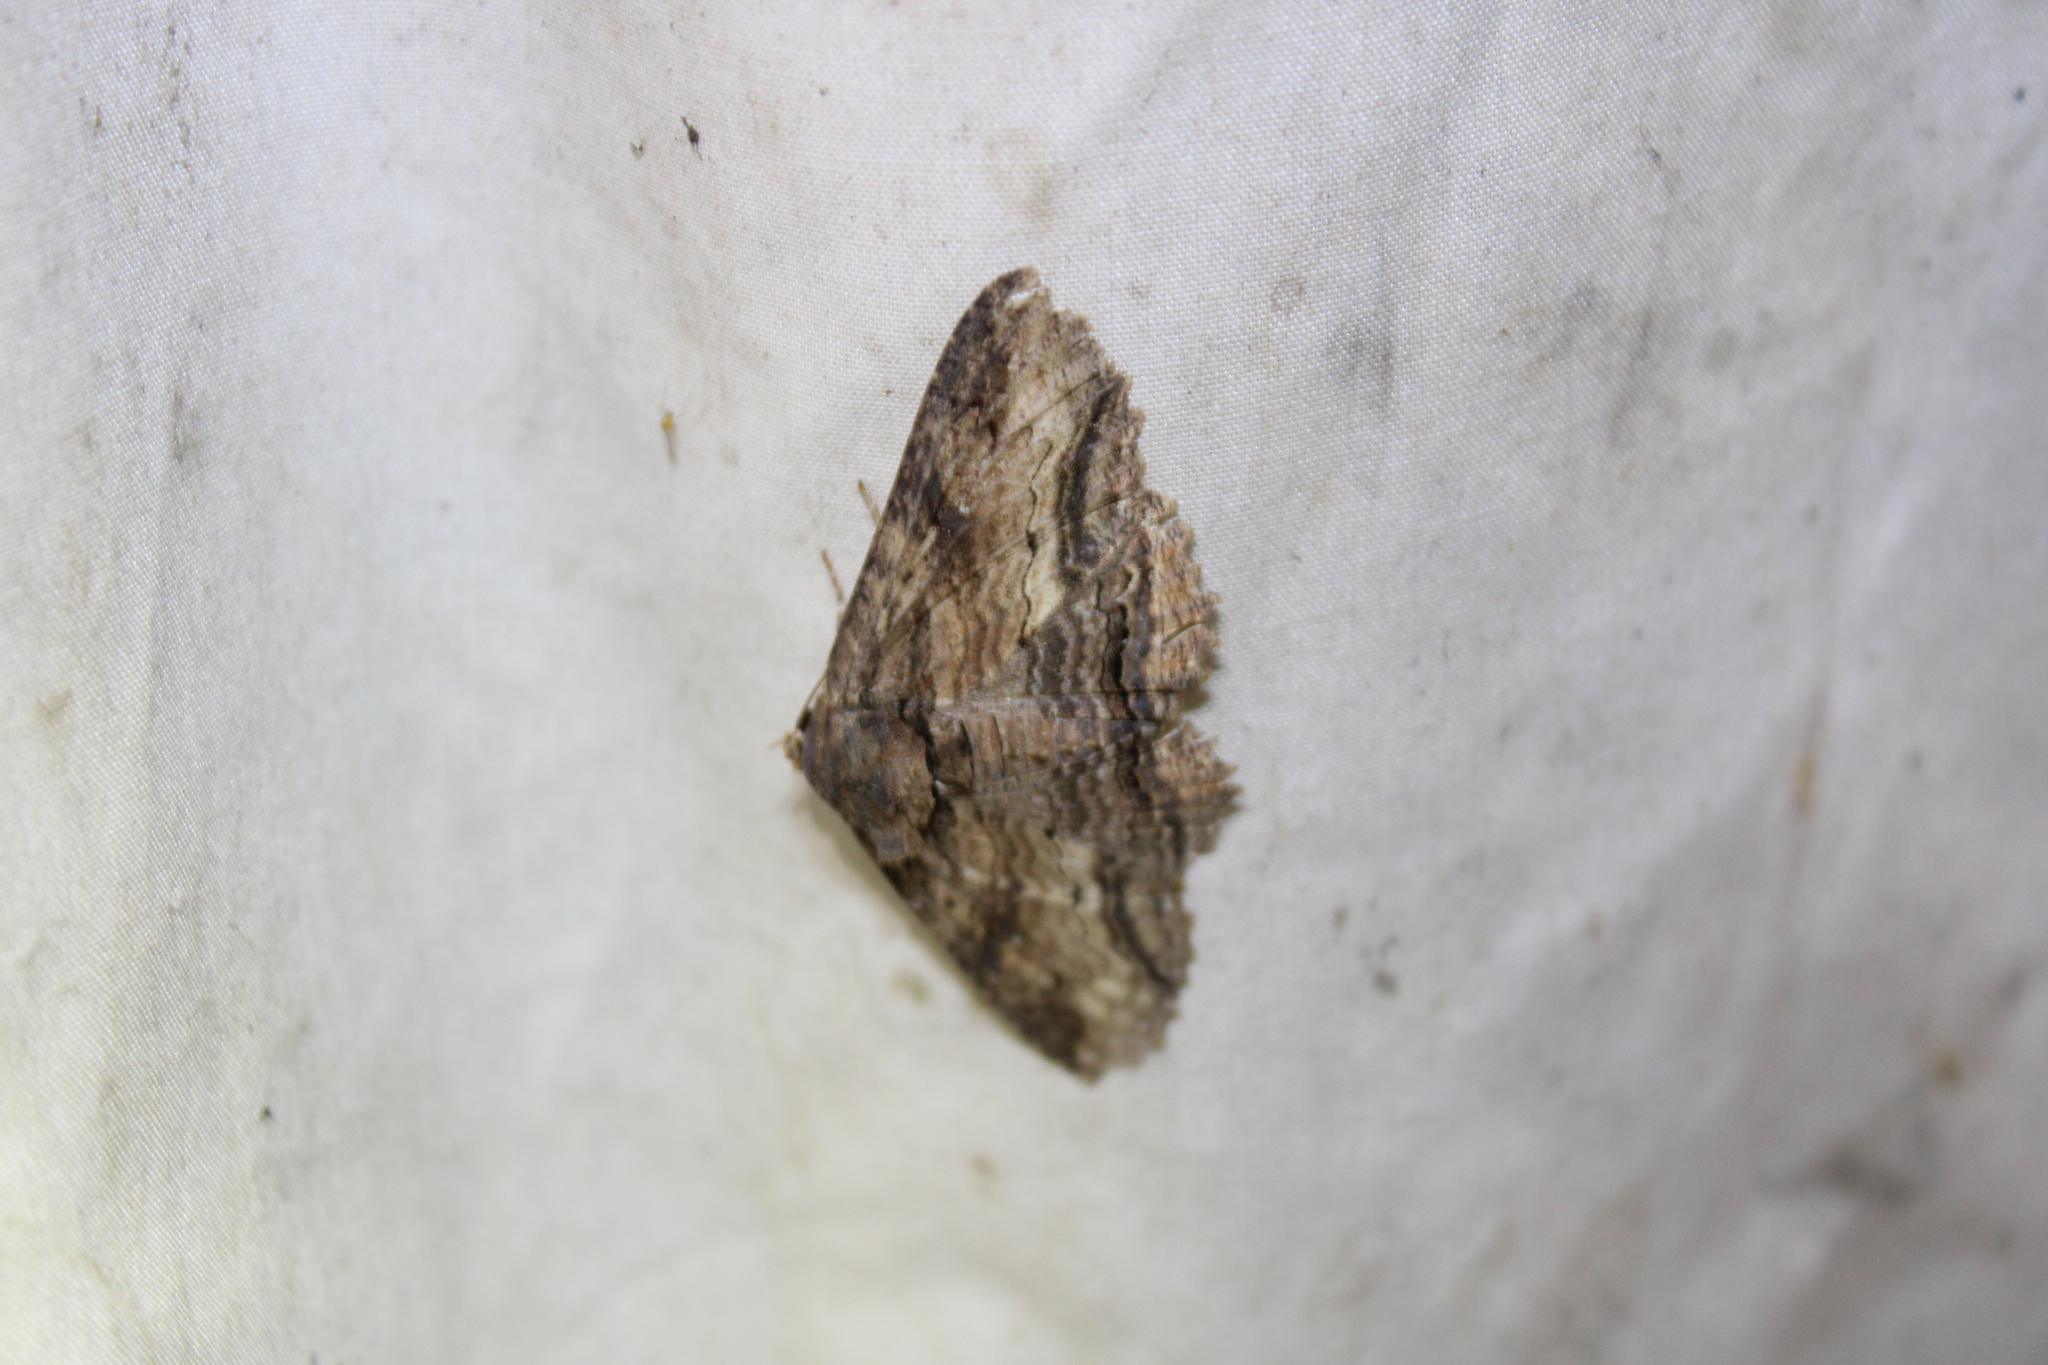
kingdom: Animalia
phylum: Arthropoda
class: Insecta
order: Lepidoptera
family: Erebidae
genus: Zale
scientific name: Zale lunata
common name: Lunate zale moth
